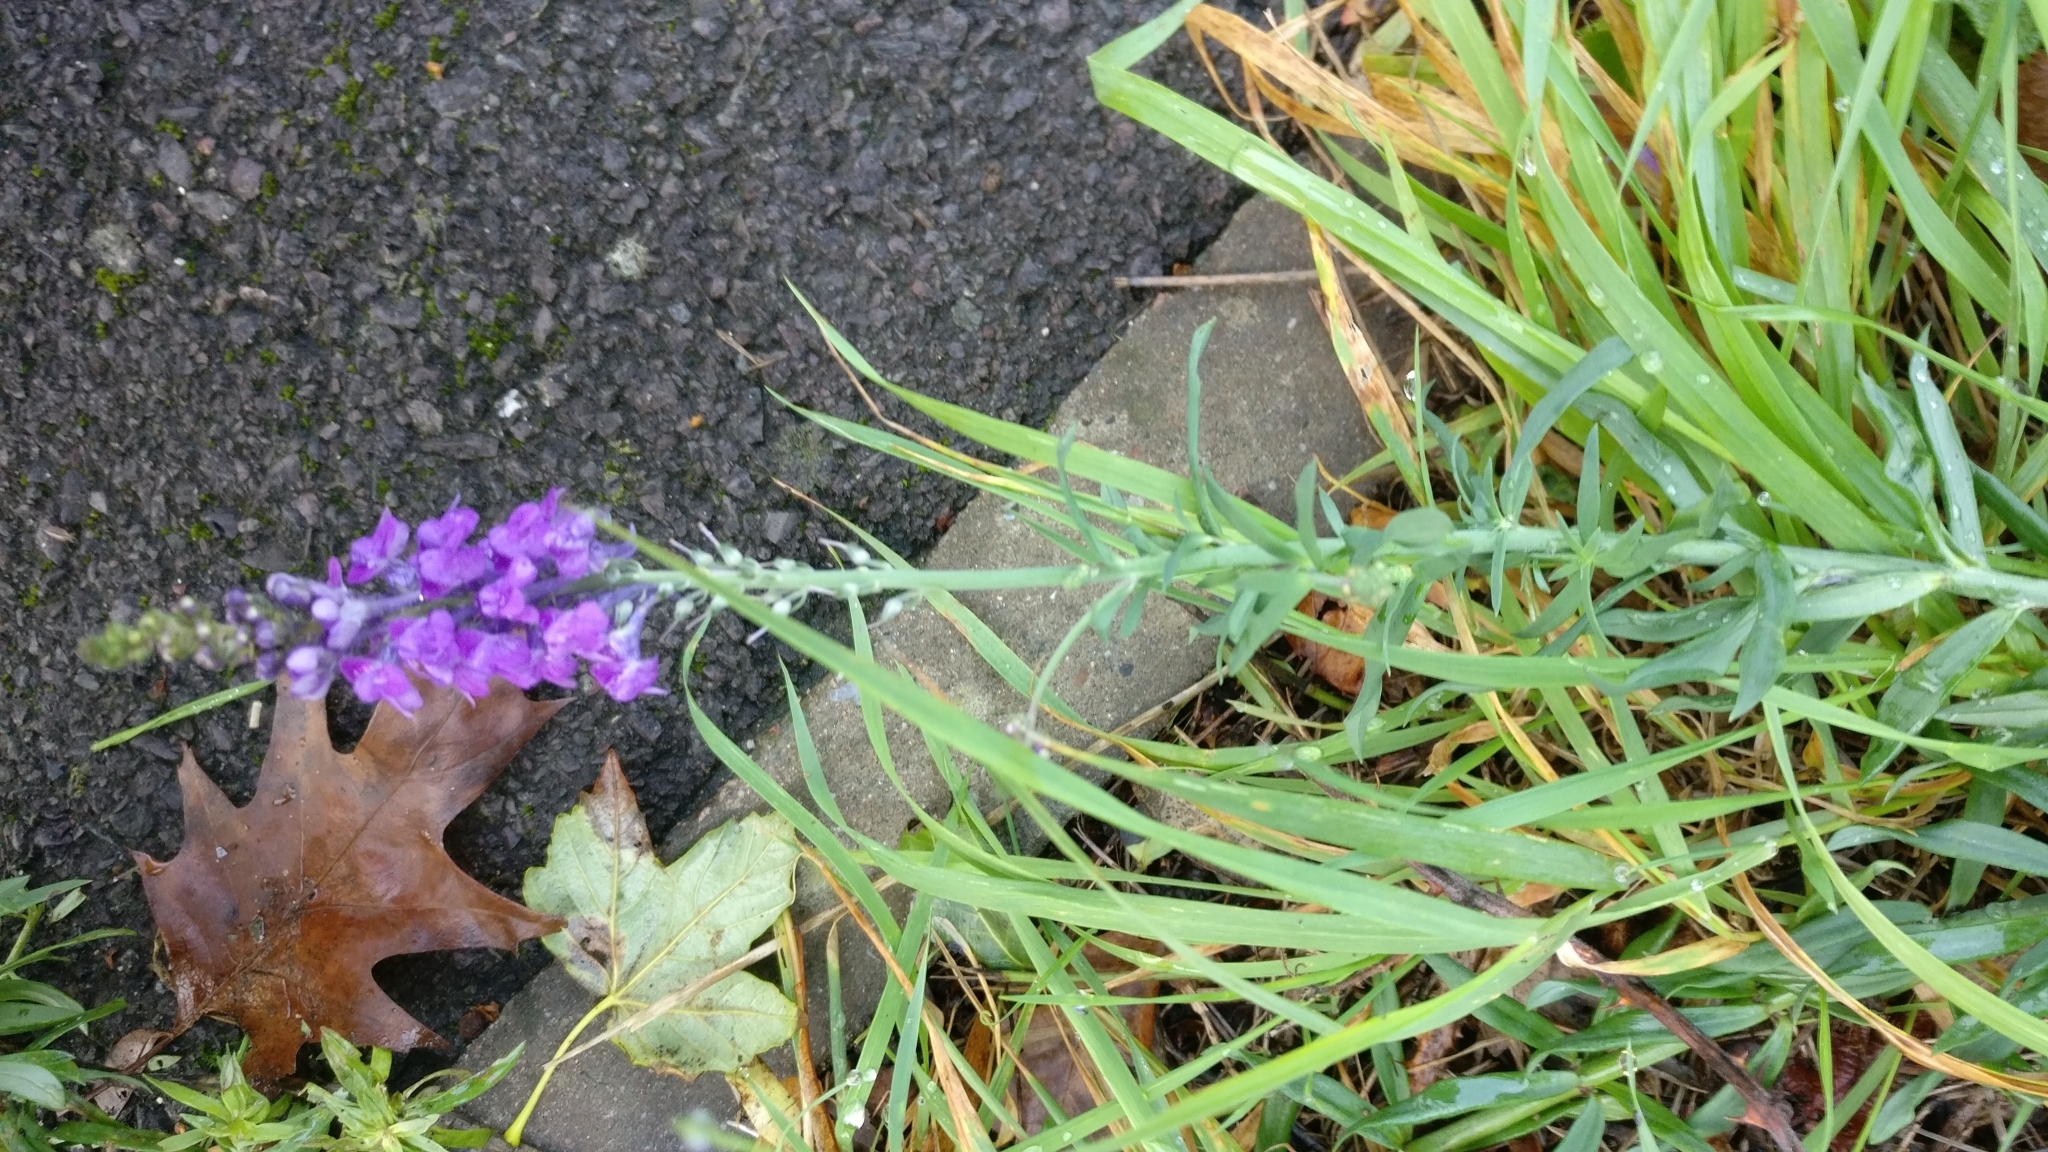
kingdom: Plantae
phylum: Tracheophyta
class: Magnoliopsida
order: Lamiales
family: Plantaginaceae
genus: Linaria
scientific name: Linaria purpurea
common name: Purple toadflax
